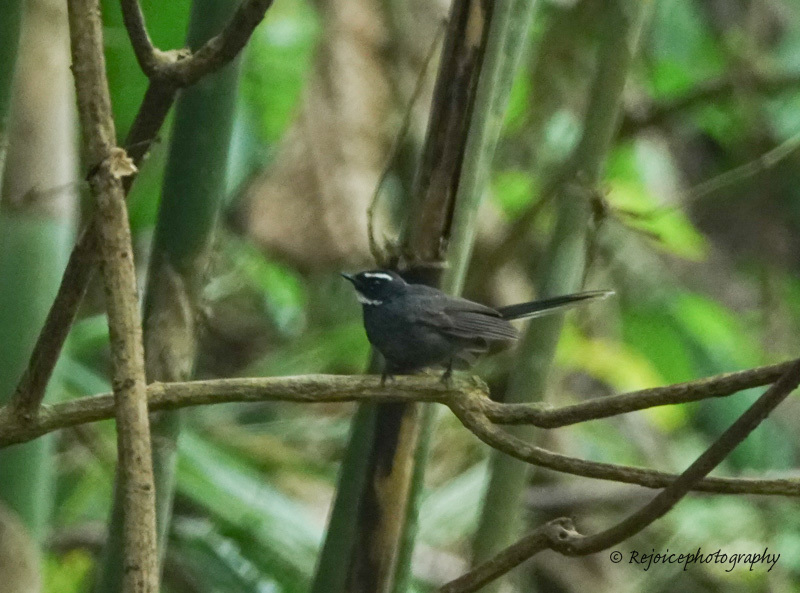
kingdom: Animalia
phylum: Chordata
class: Aves
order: Passeriformes
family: Rhipiduridae
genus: Rhipidura
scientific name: Rhipidura albicollis
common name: White-throated fantail
